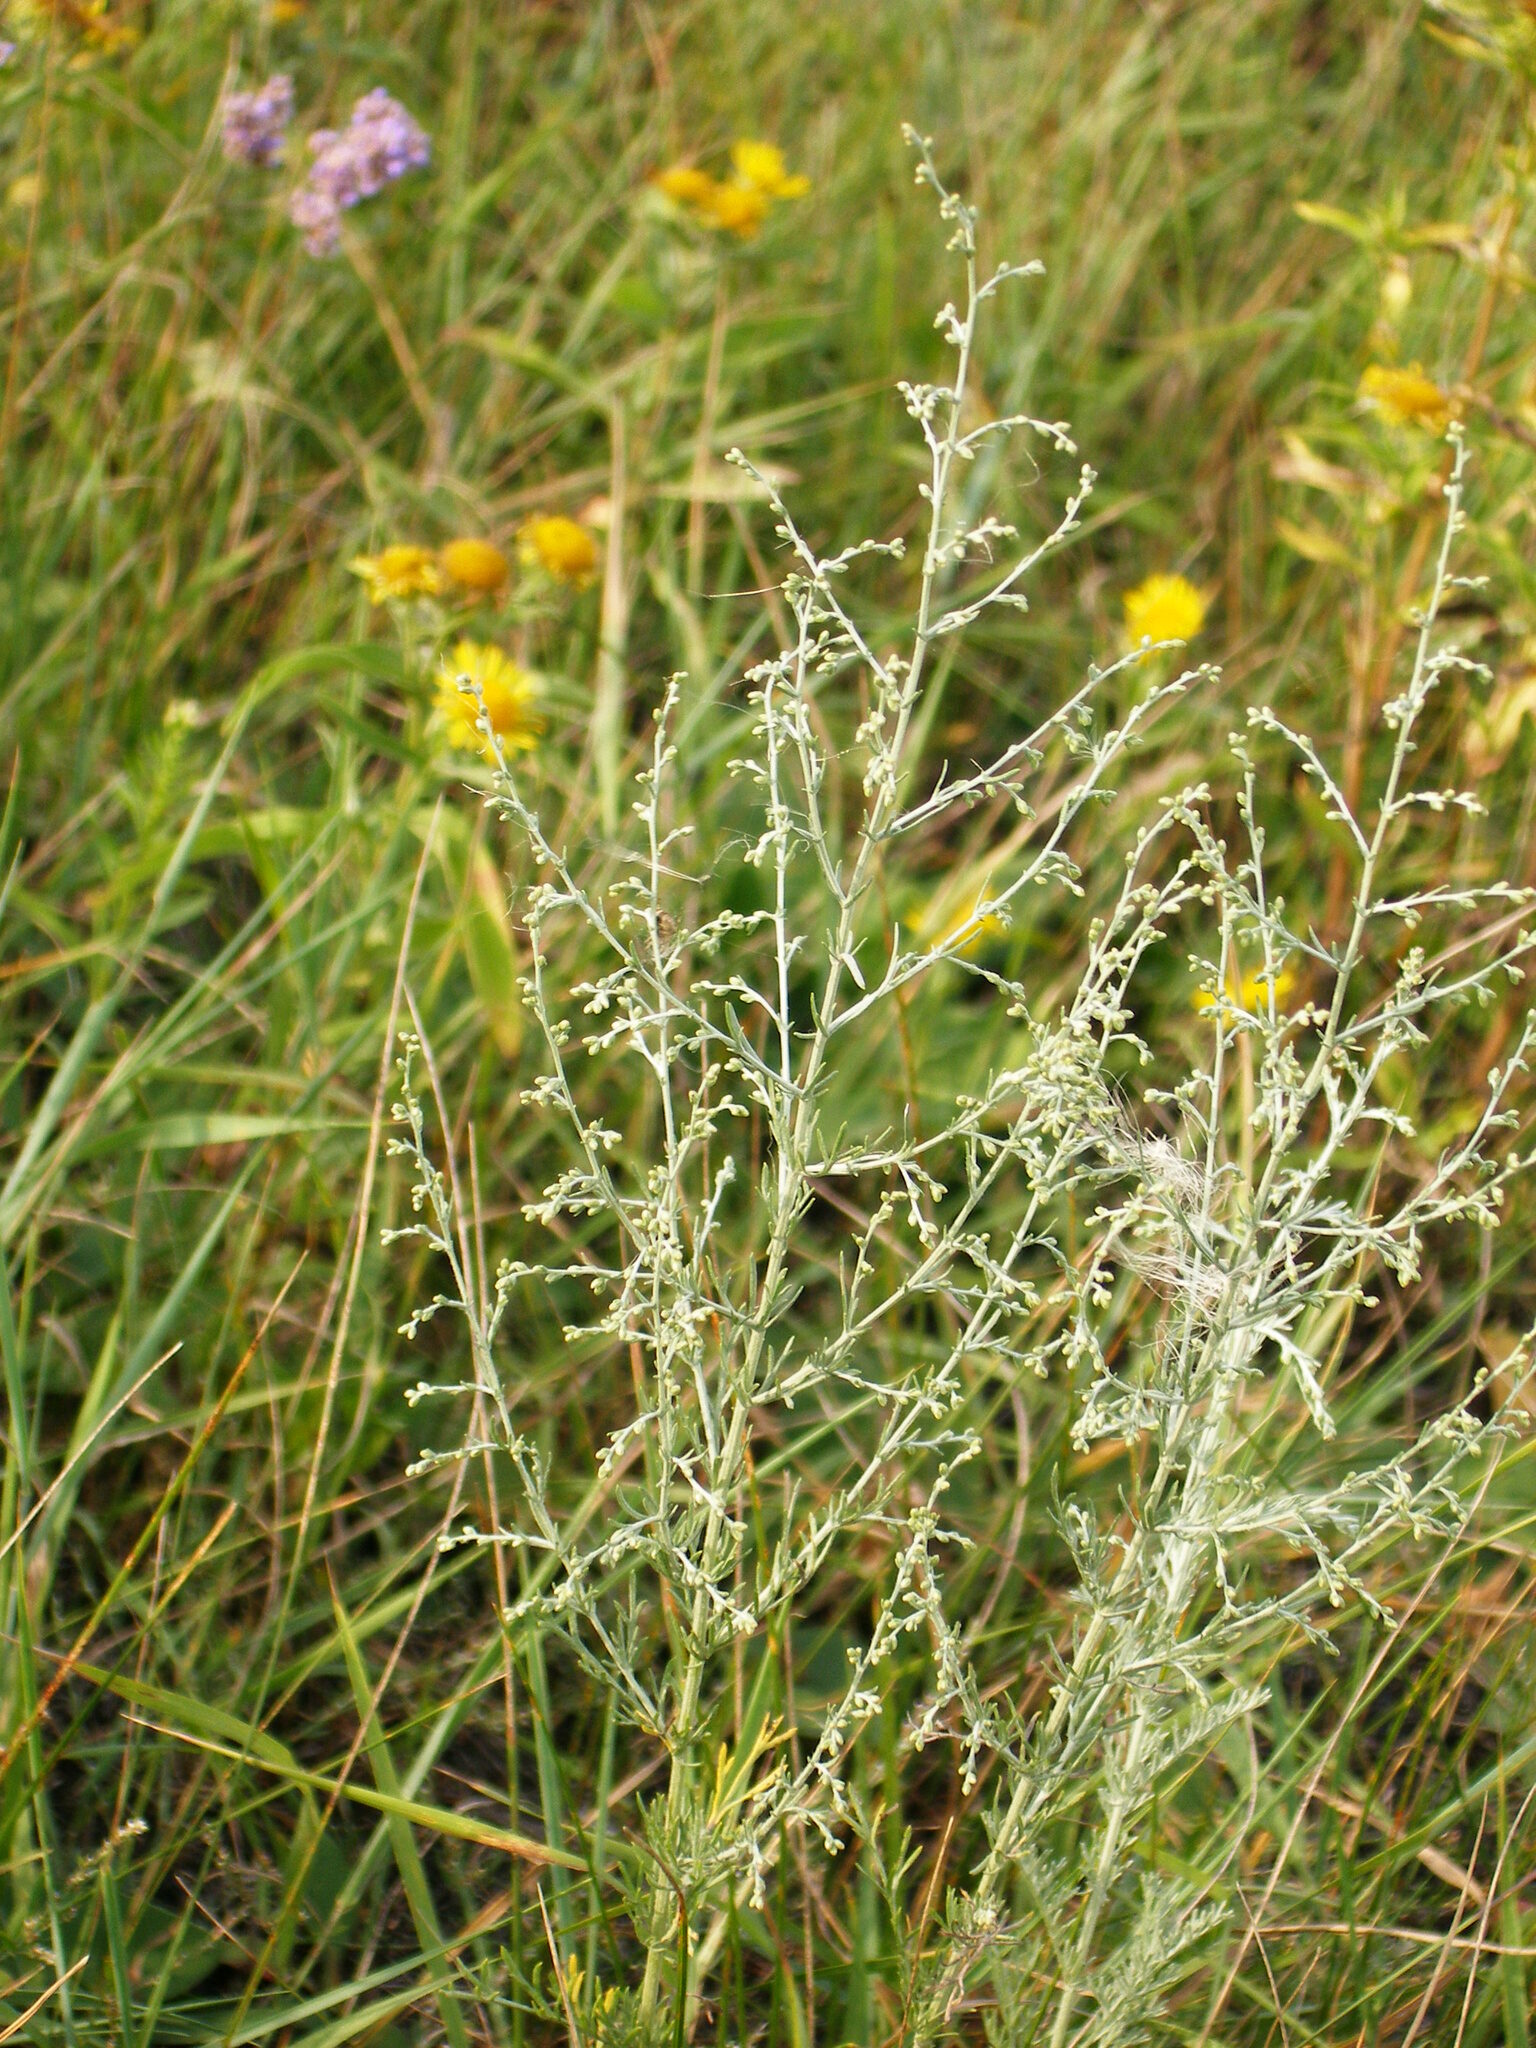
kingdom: Plantae
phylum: Tracheophyta
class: Magnoliopsida
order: Asterales
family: Asteraceae
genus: Artemisia
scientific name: Artemisia santonicum
